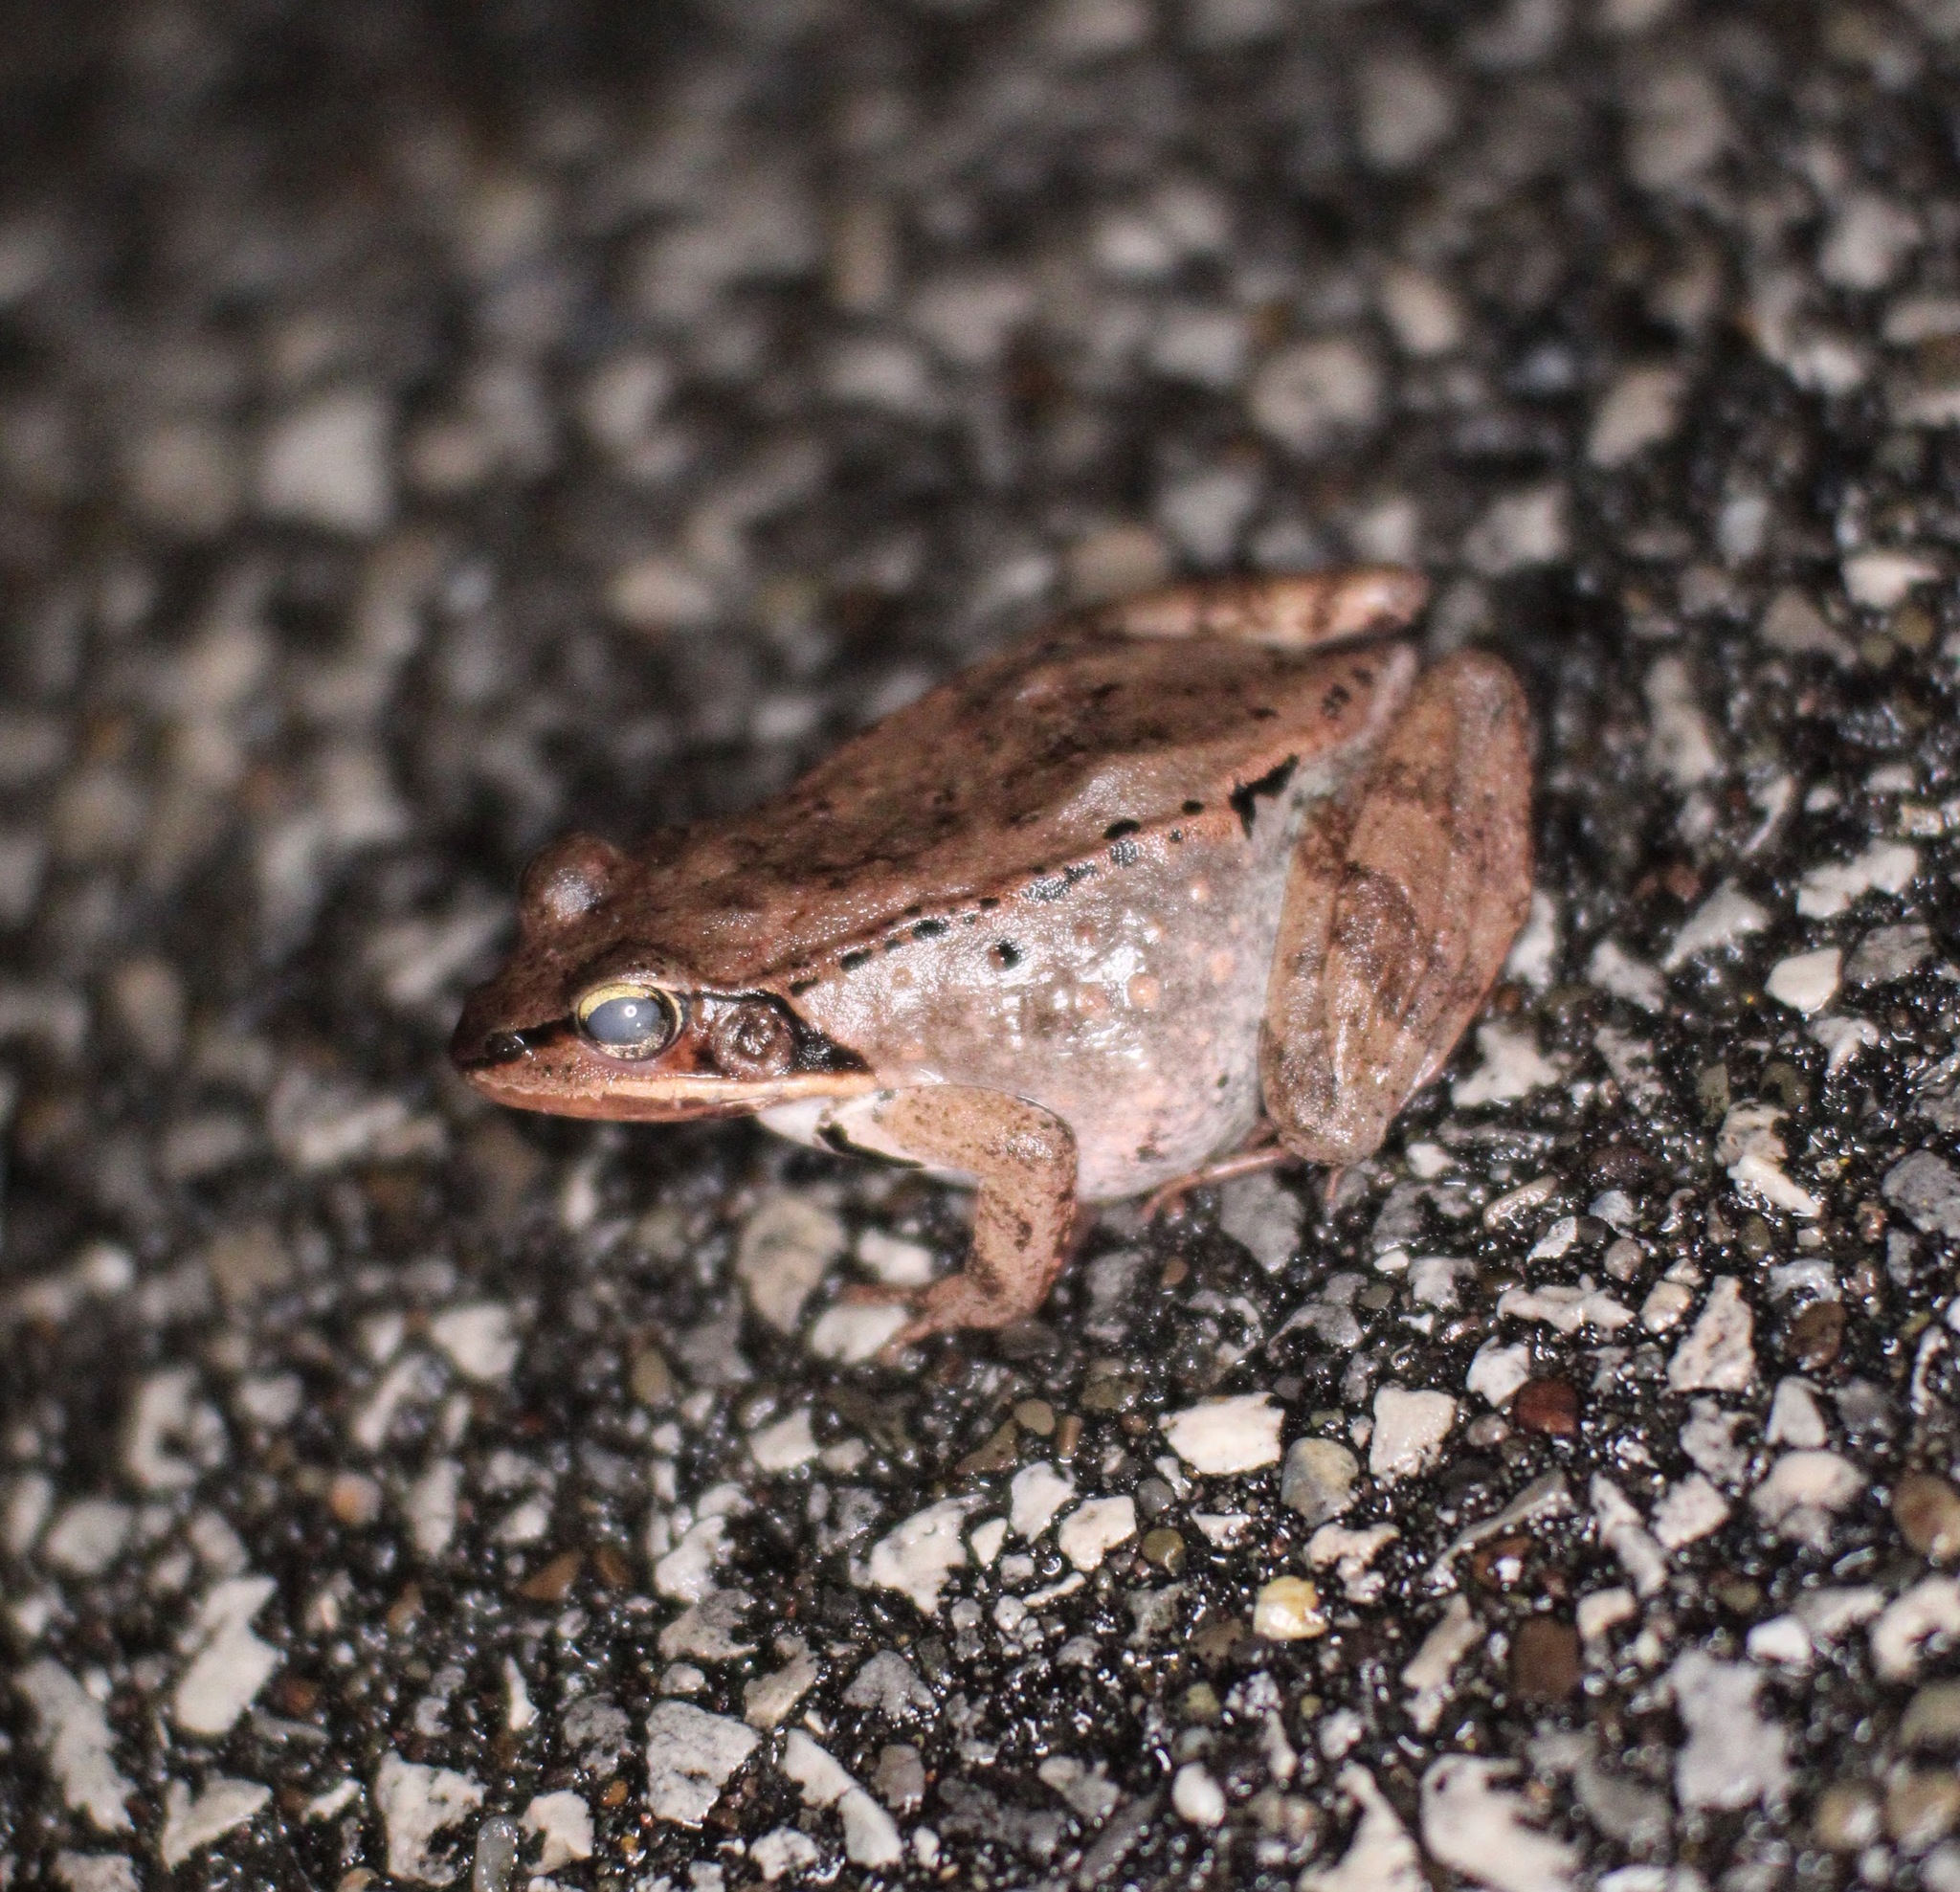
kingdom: Animalia
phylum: Chordata
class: Amphibia
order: Anura
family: Ranidae
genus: Lithobates
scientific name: Lithobates sylvaticus
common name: Wood frog
